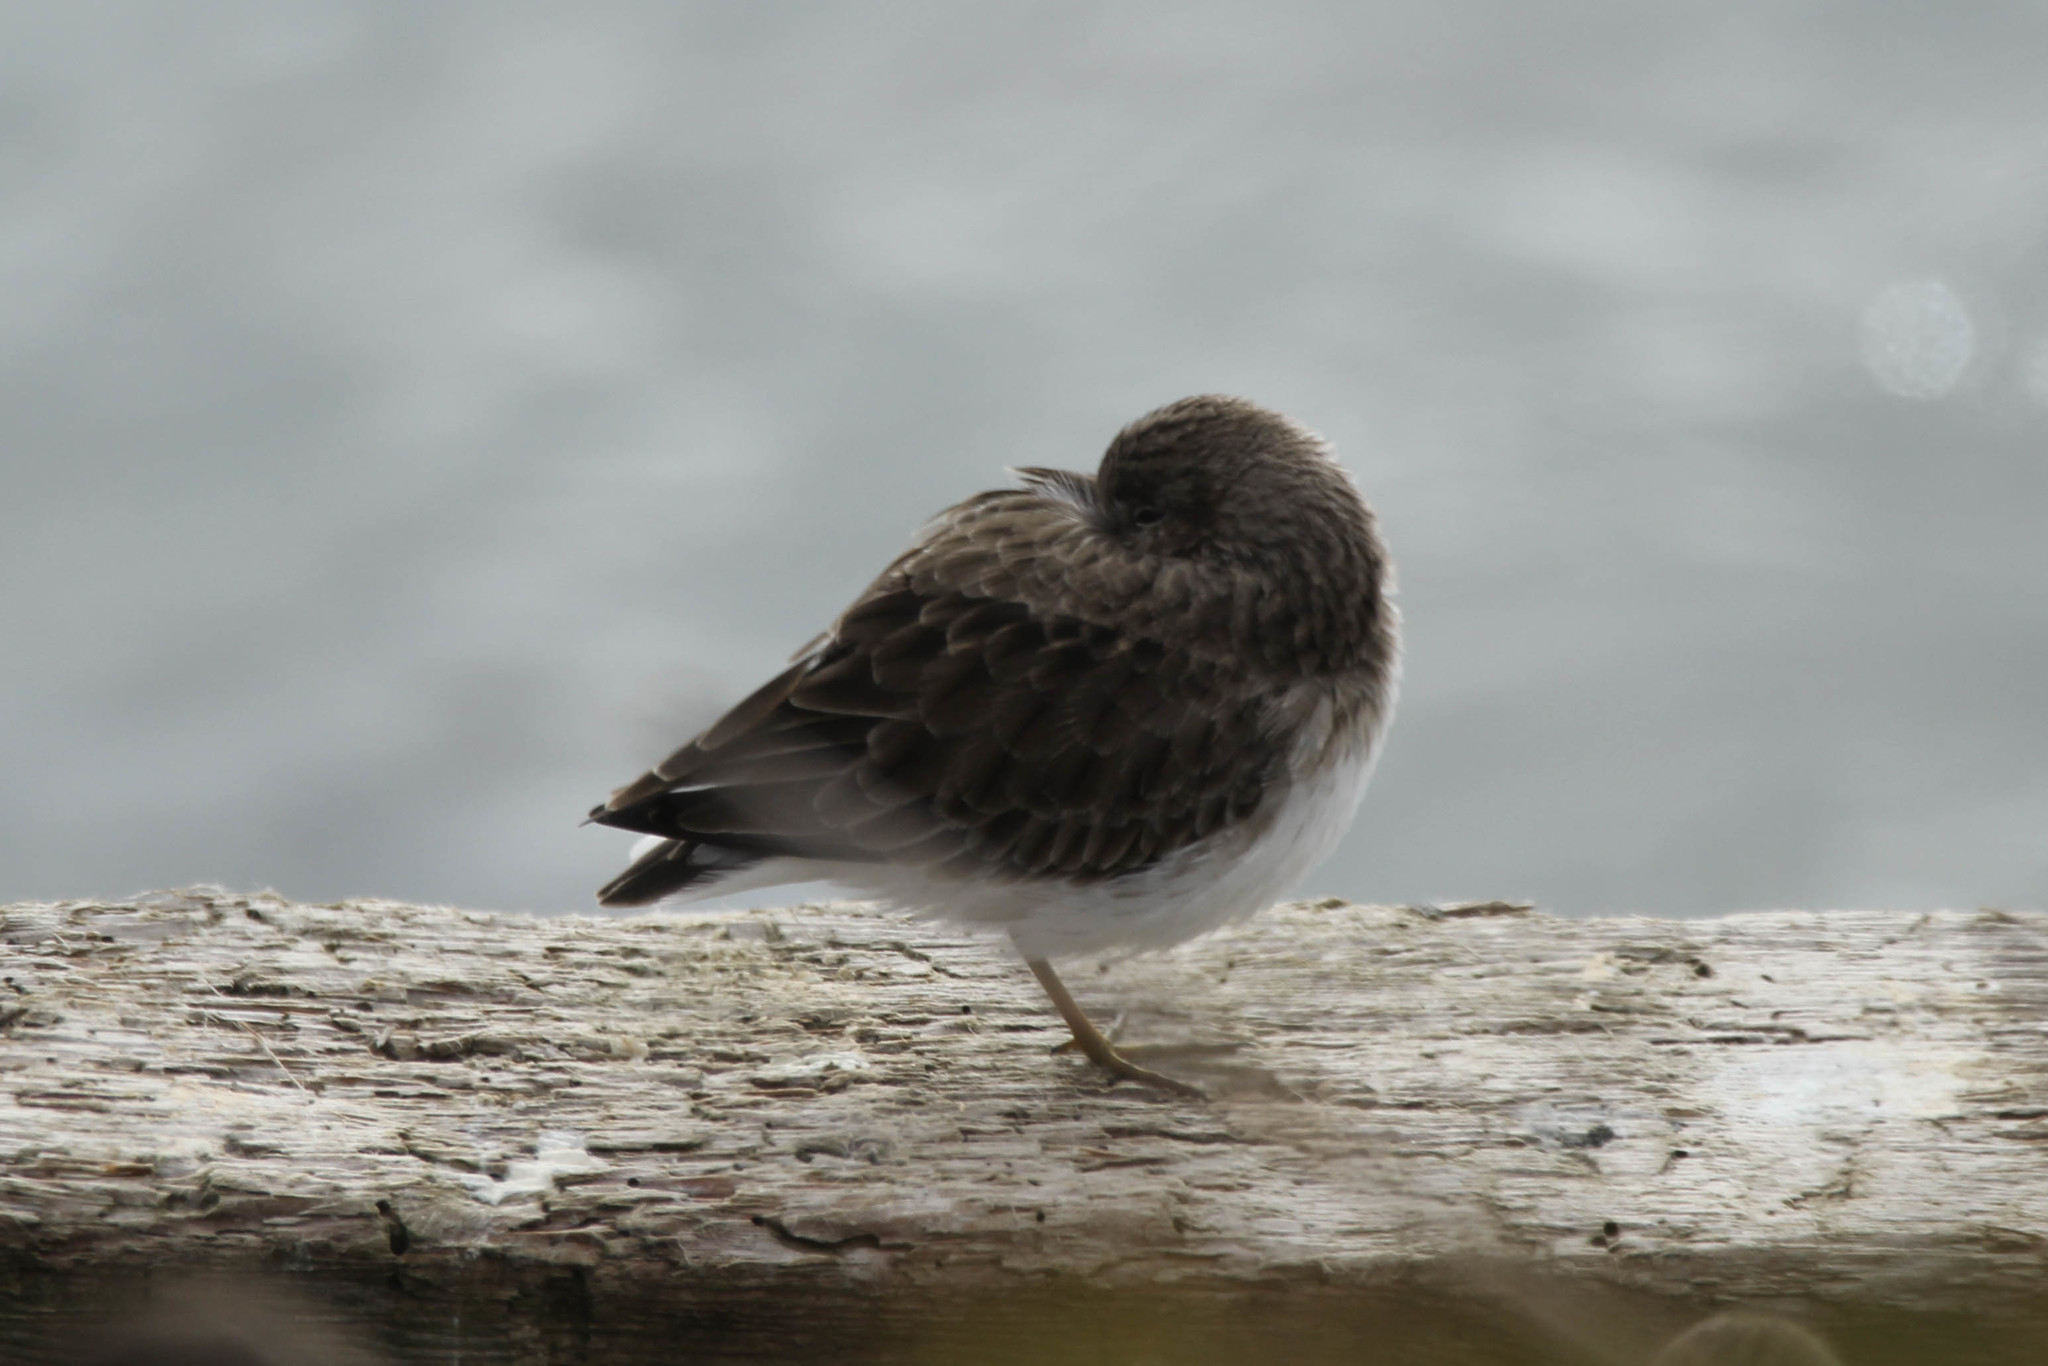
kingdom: Animalia
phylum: Chordata
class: Aves
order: Charadriiformes
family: Scolopacidae
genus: Calidris
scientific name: Calidris minutilla
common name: Least sandpiper
